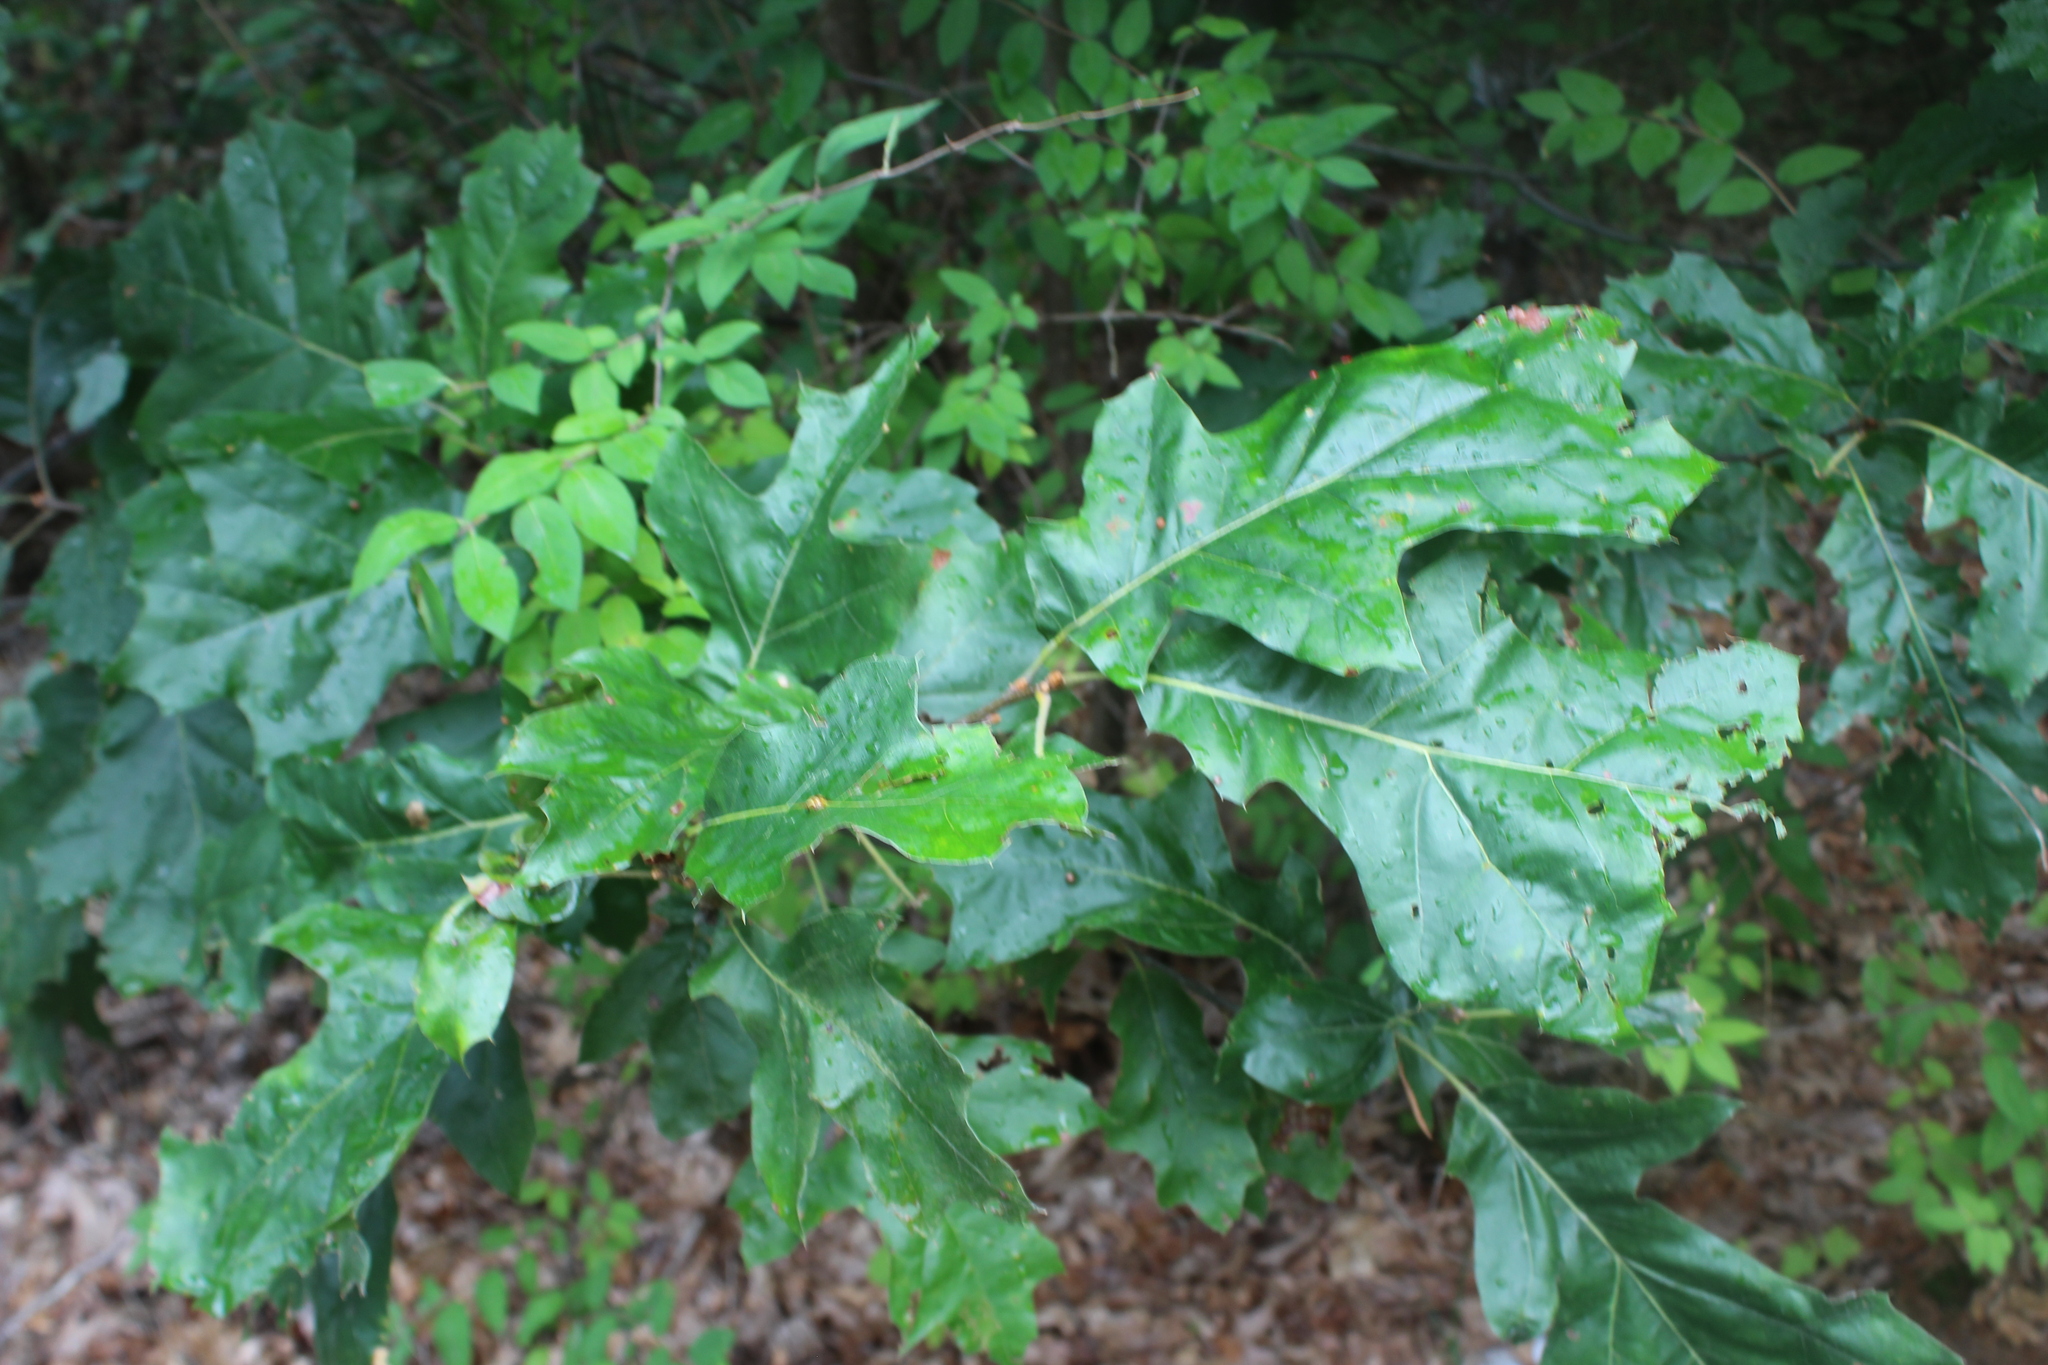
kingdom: Plantae
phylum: Tracheophyta
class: Magnoliopsida
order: Fagales
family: Fagaceae
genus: Quercus
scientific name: Quercus velutina
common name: Black oak
